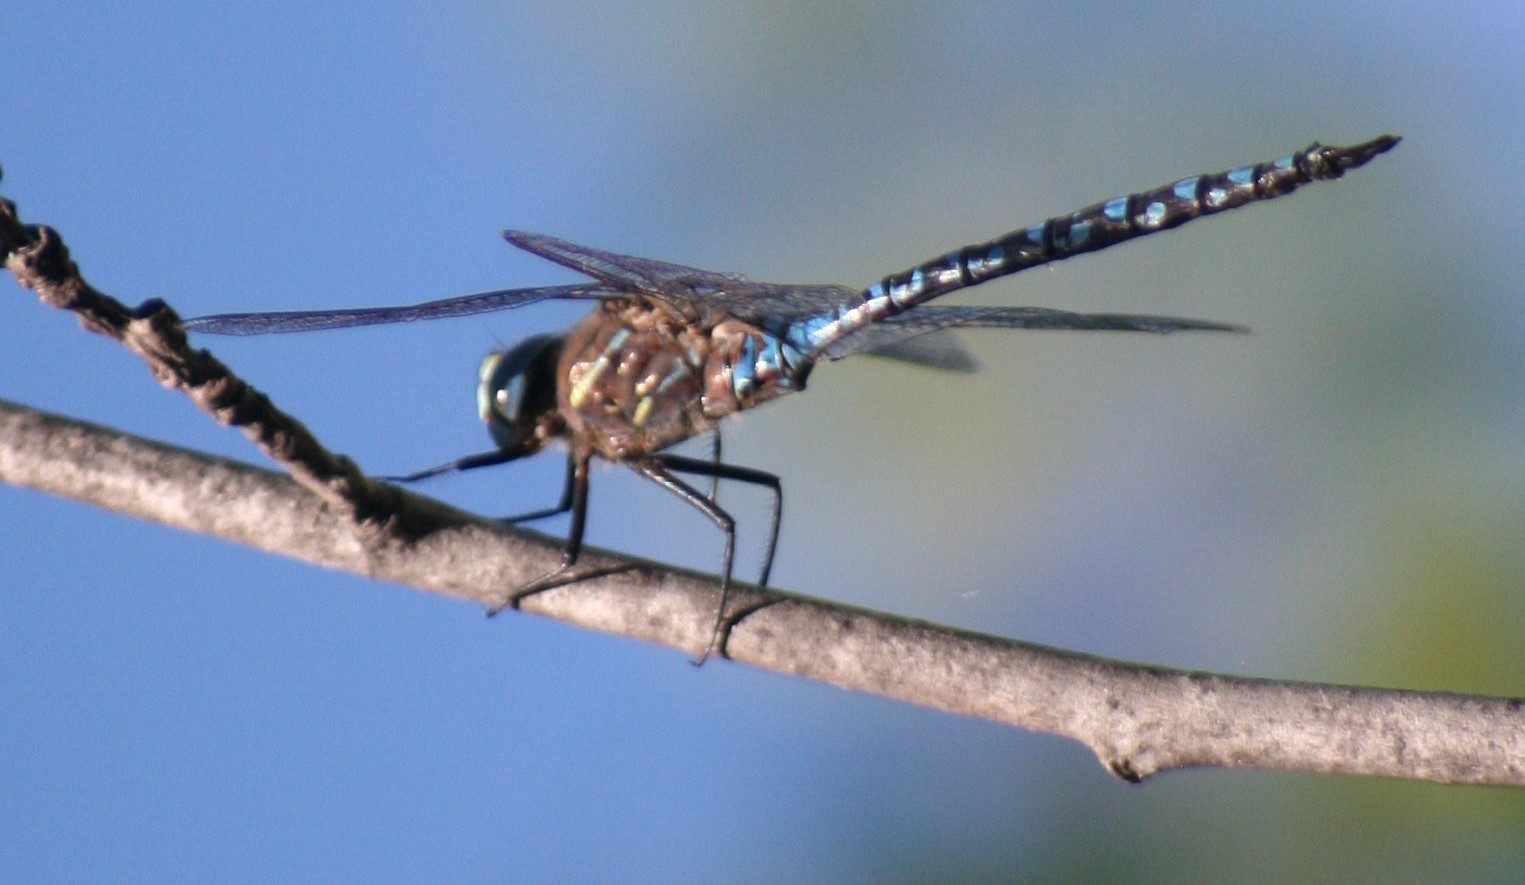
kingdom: Animalia
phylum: Arthropoda
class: Insecta
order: Odonata
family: Aeshnidae
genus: Aeshna
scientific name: Aeshna interrupta
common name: Variable darner
